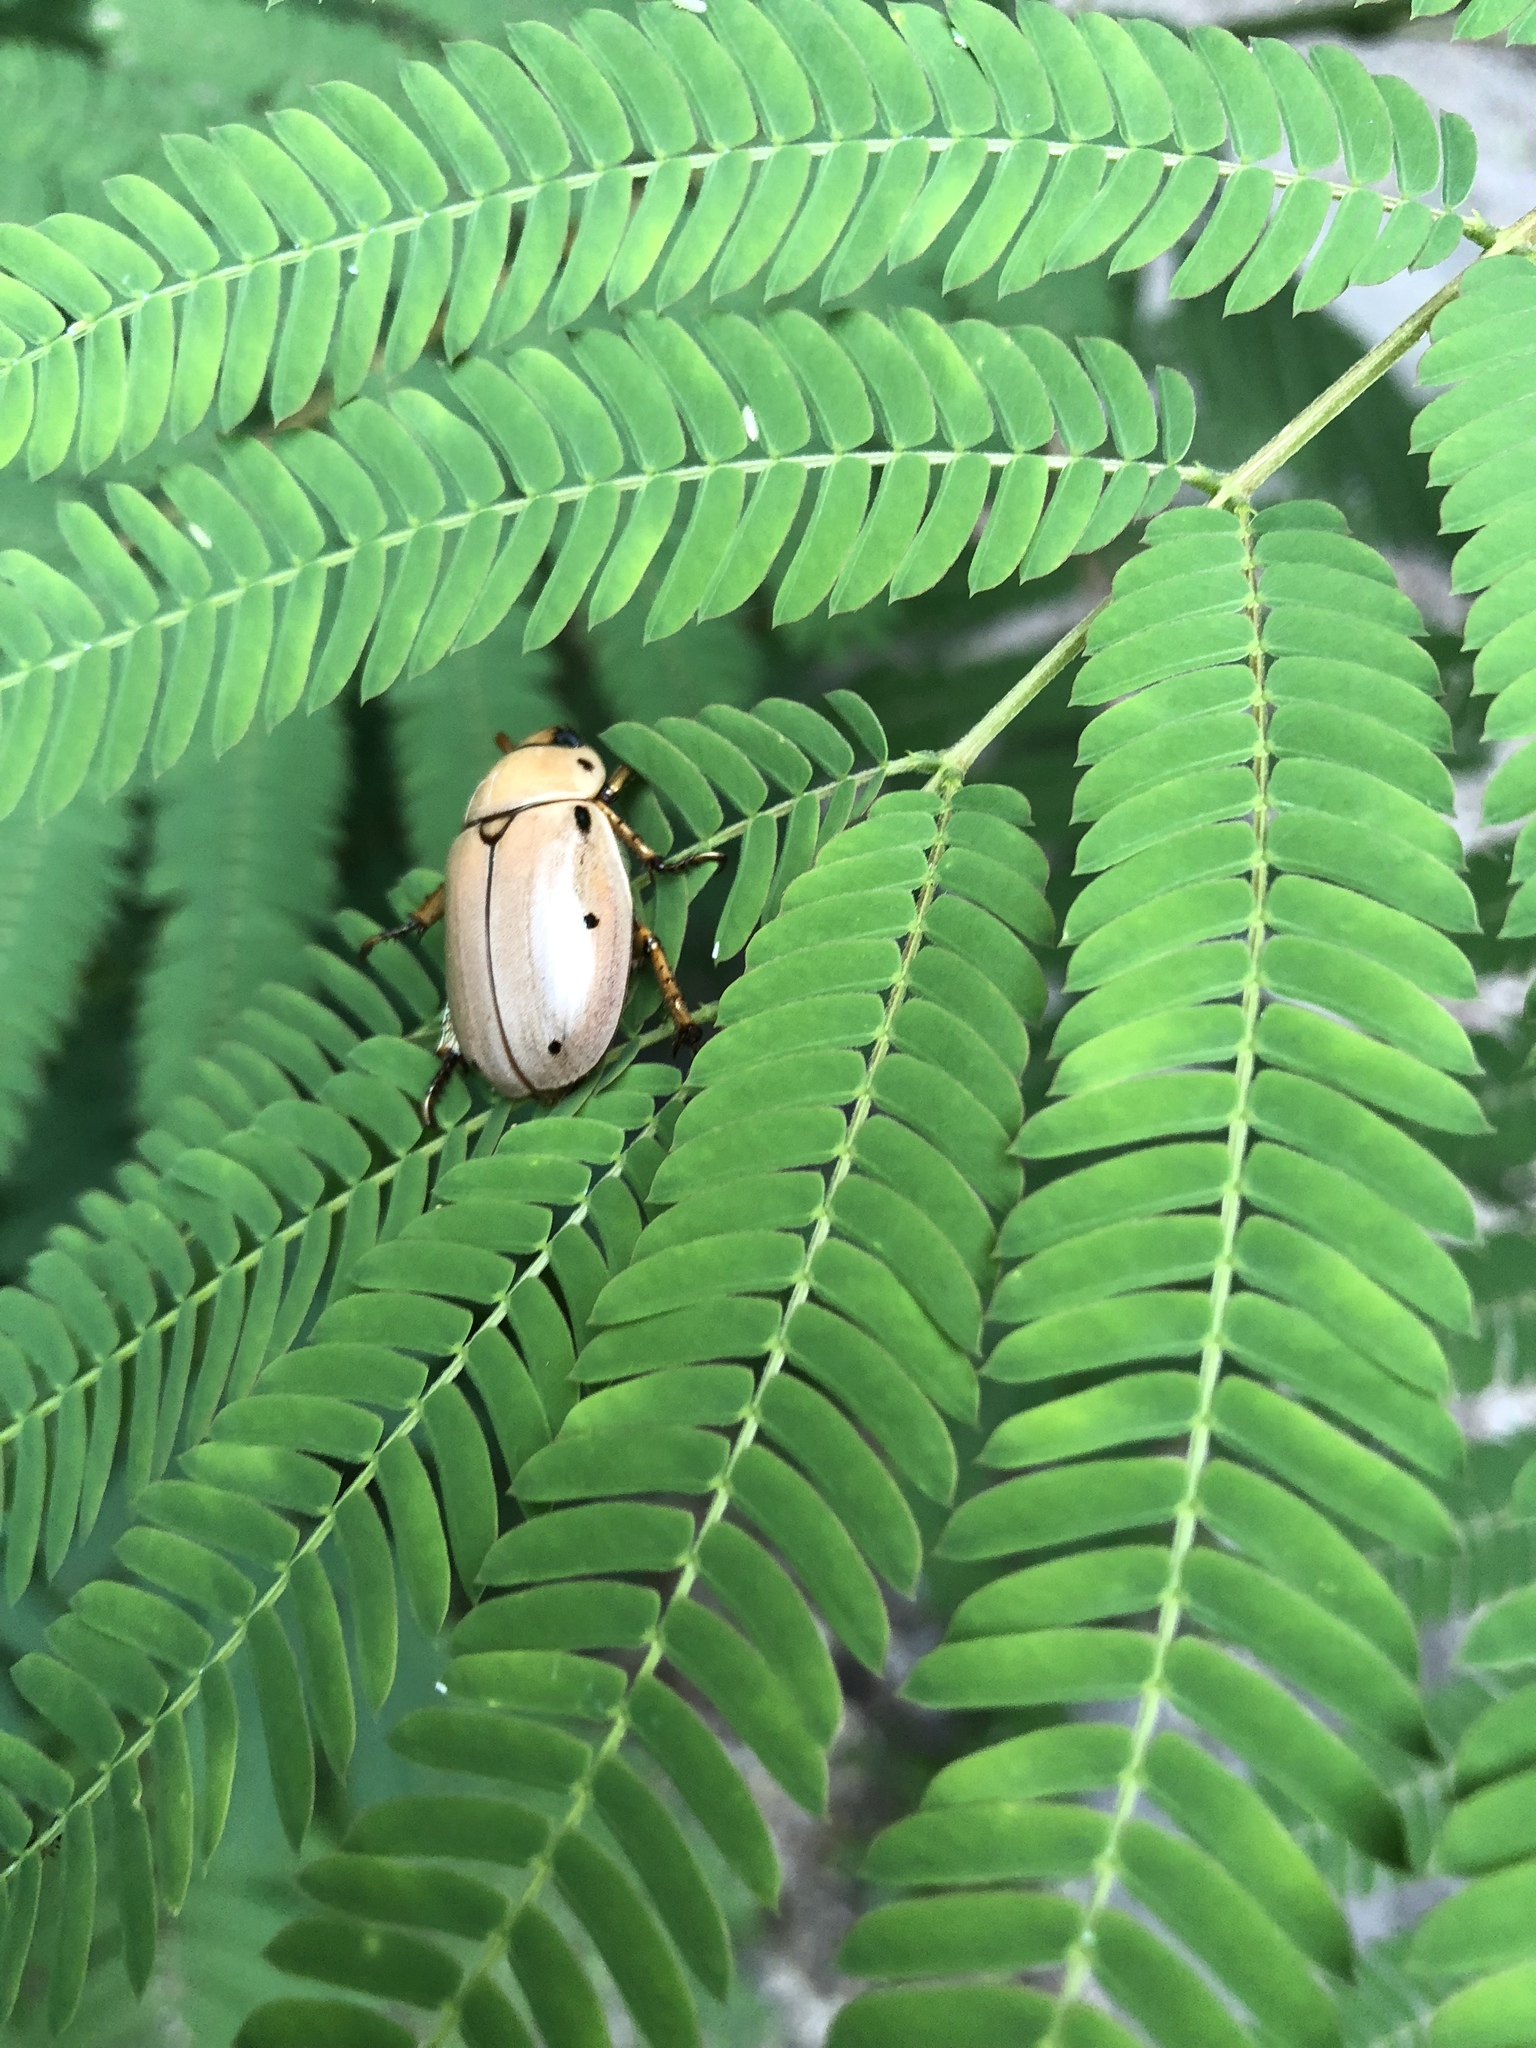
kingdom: Animalia
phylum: Arthropoda
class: Insecta
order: Coleoptera
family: Scarabaeidae
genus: Pelidnota
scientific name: Pelidnota punctata
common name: Grapevine beetle
